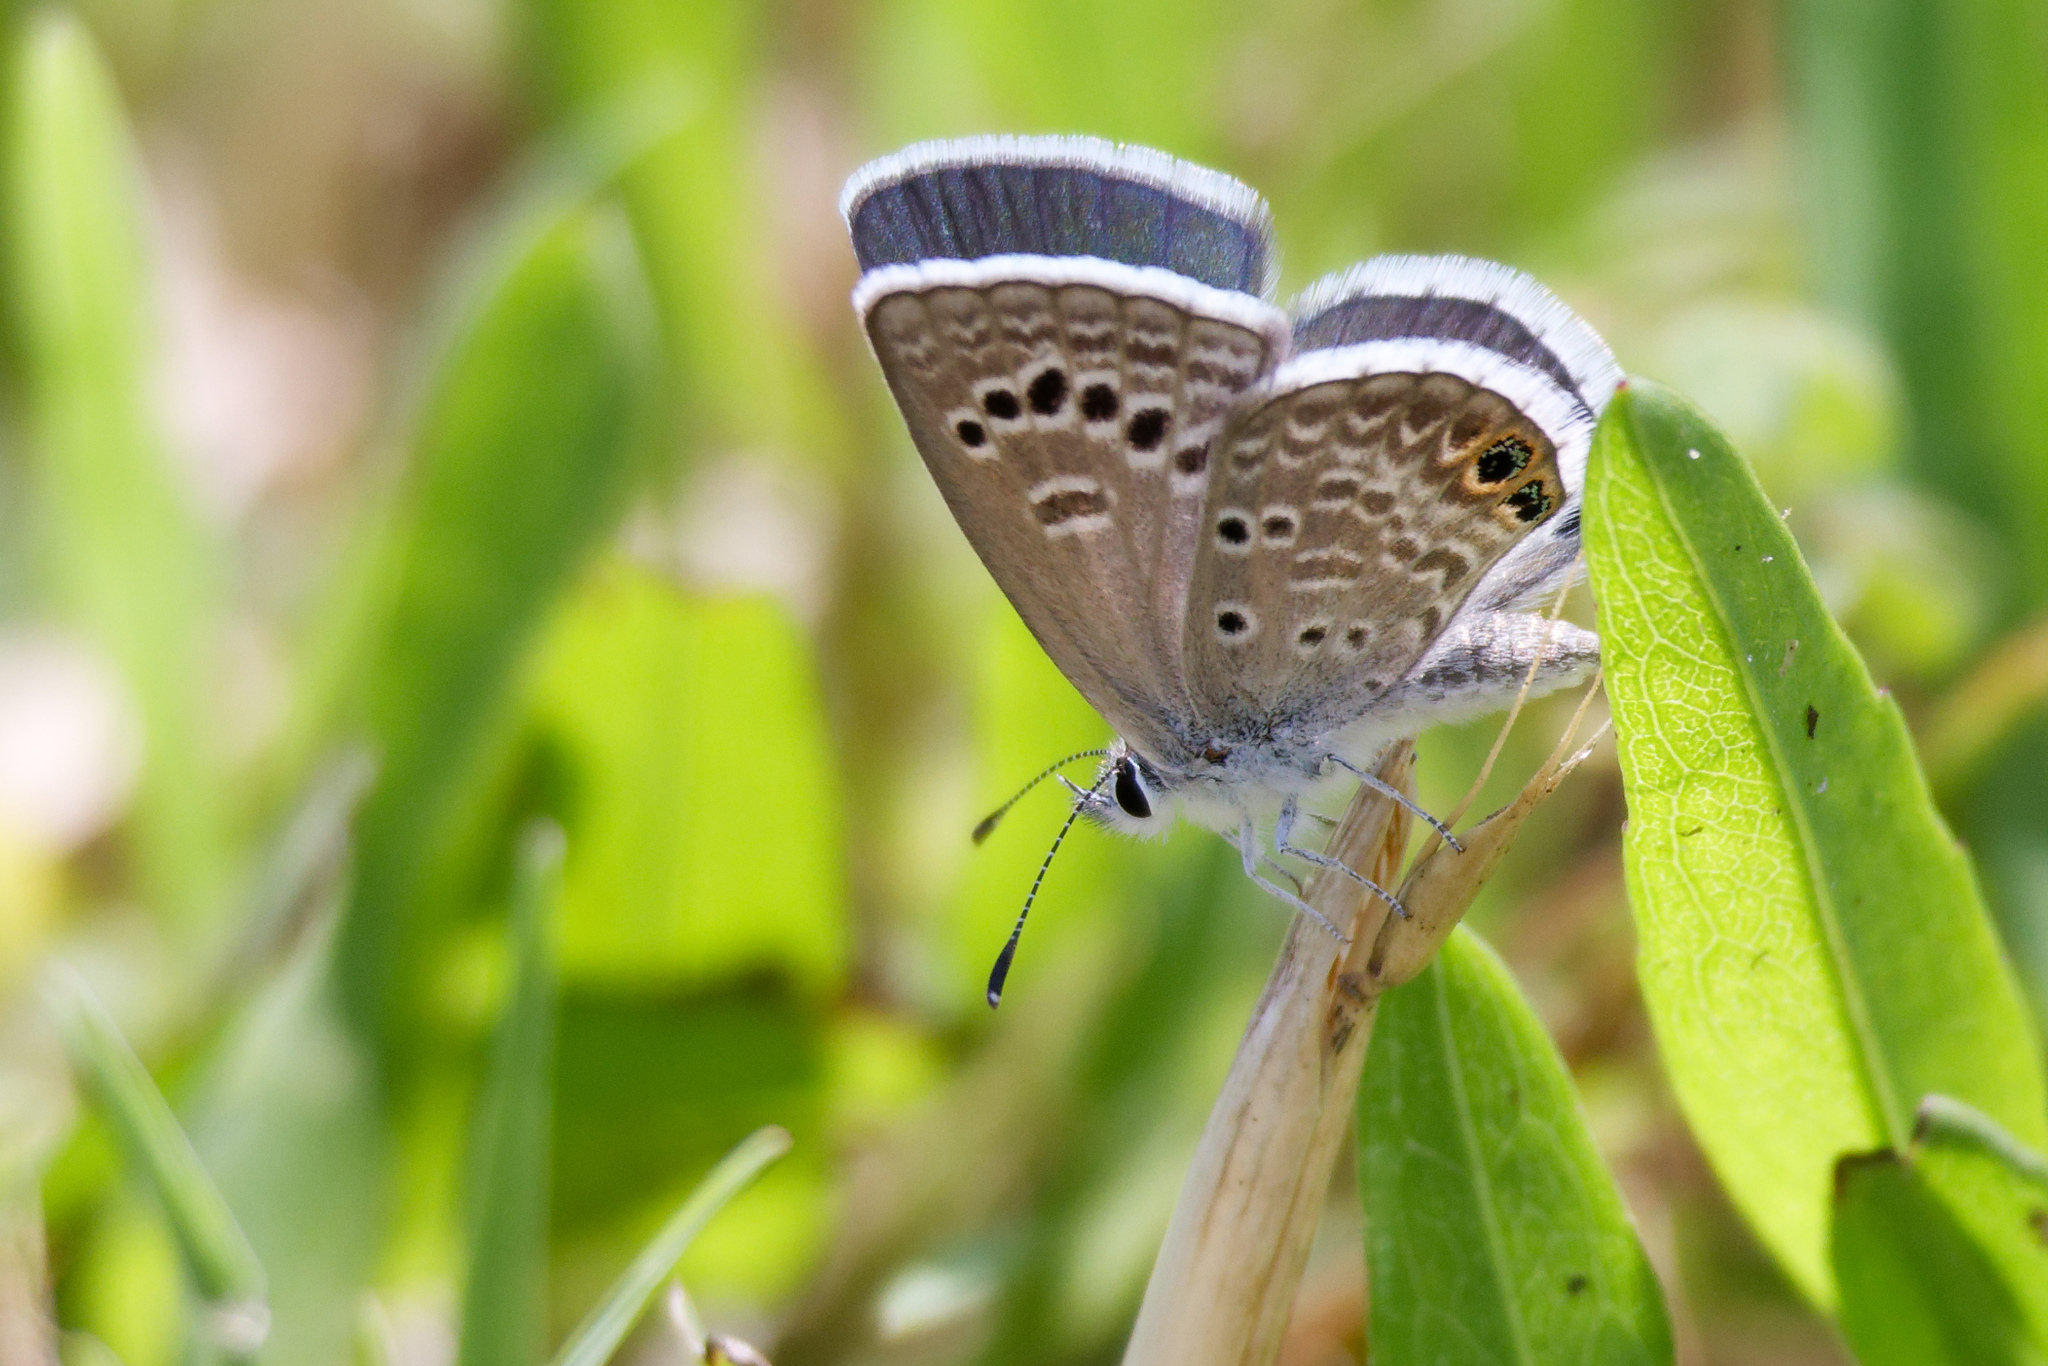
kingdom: Animalia
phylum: Arthropoda
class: Insecta
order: Lepidoptera
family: Lycaenidae
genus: Echinargus
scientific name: Echinargus isola
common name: Reakirt's blue
